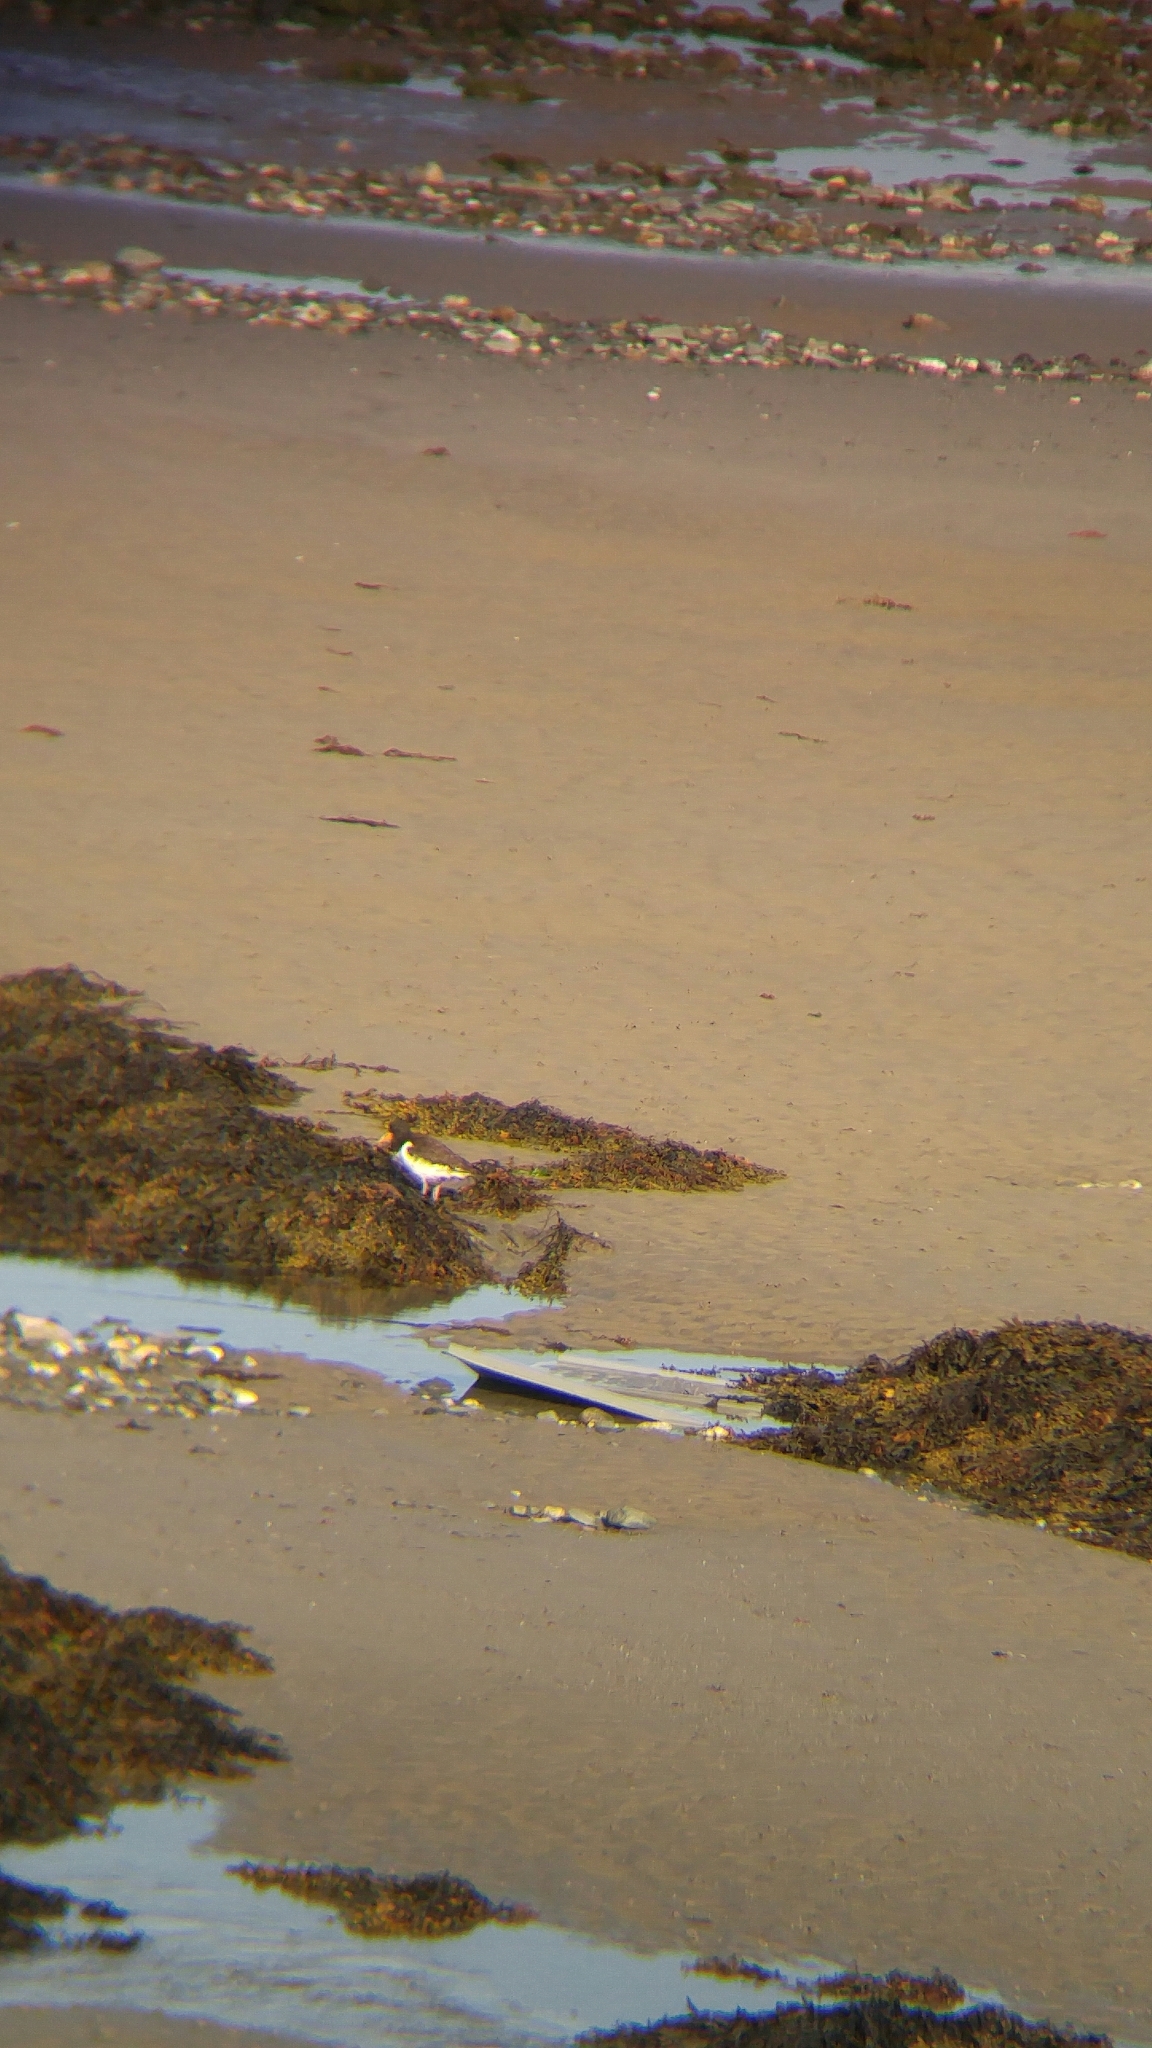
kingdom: Animalia
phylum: Chordata
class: Aves
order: Charadriiformes
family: Haematopodidae
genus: Haematopus
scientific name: Haematopus ostralegus
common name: Eurasian oystercatcher
